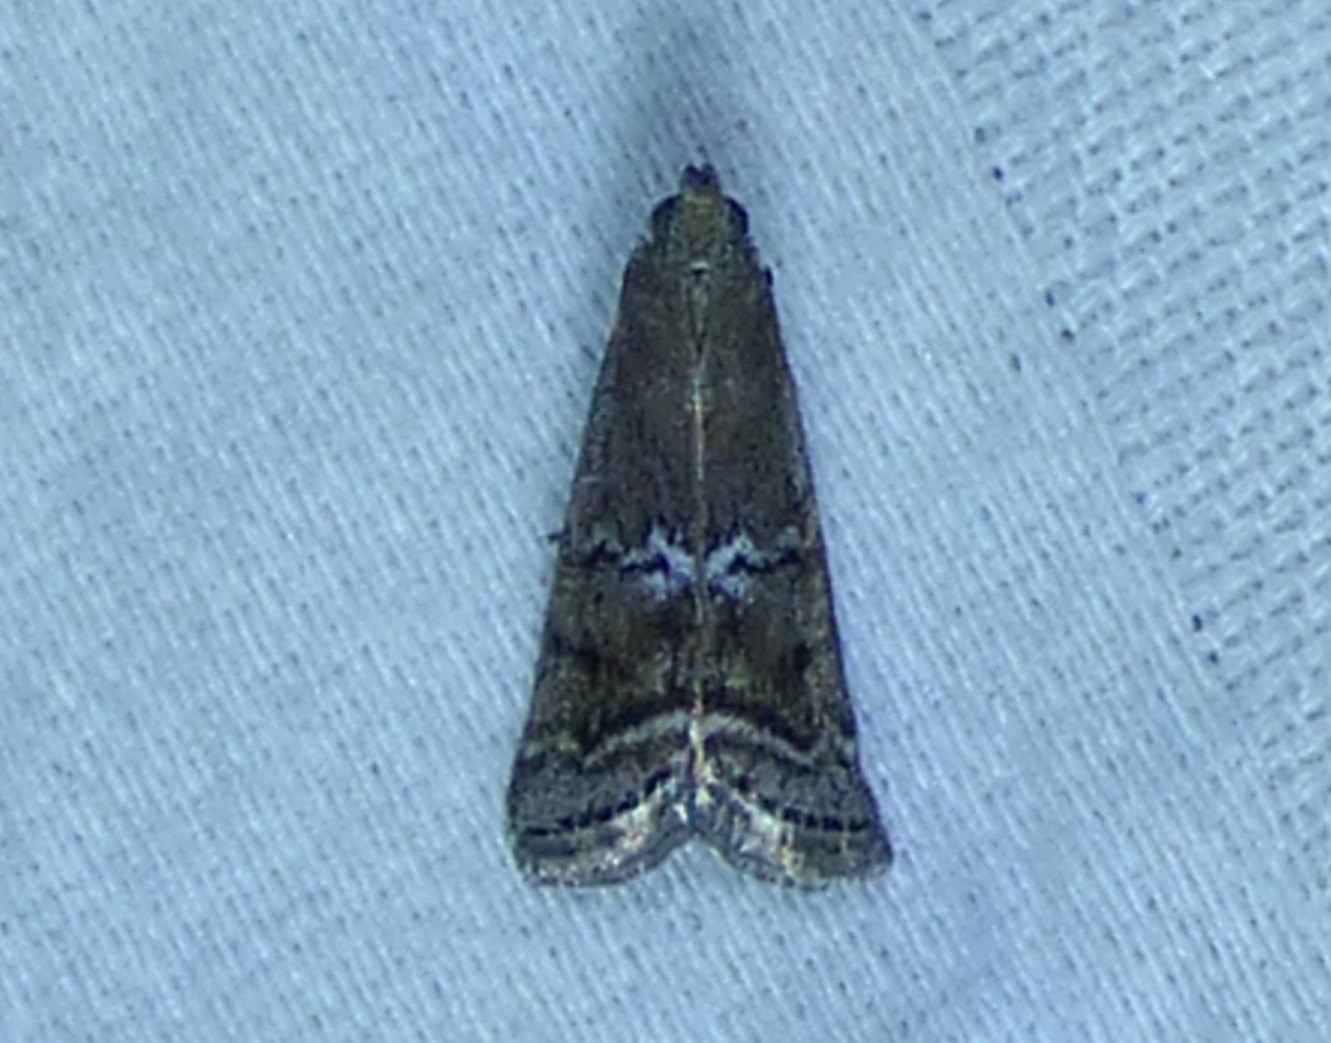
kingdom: Animalia
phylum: Arthropoda
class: Insecta
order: Lepidoptera
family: Pyralidae
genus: Ancylosis
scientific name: Ancylosis Canarsia ulmiarrosorella
